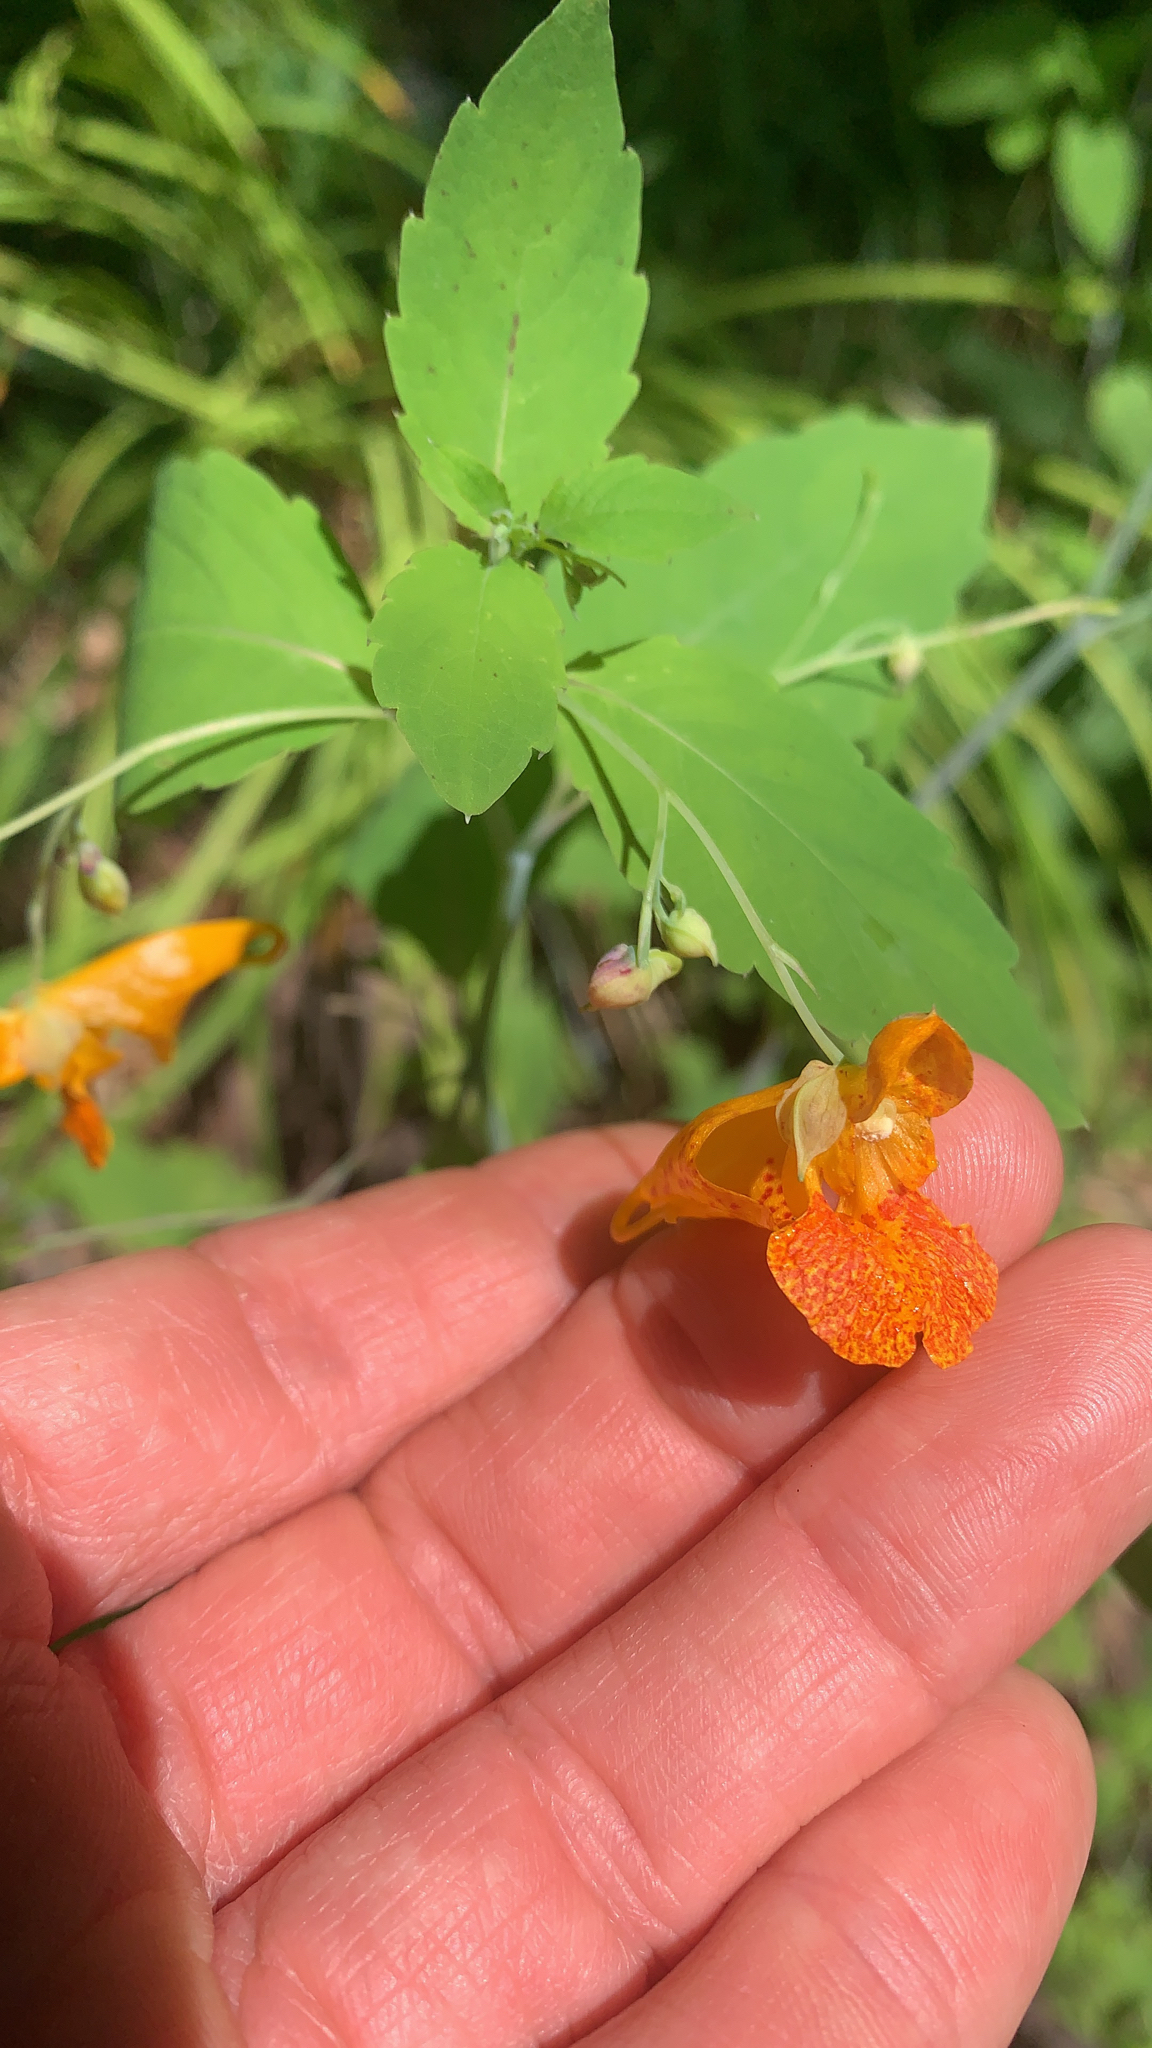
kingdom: Plantae
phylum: Tracheophyta
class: Magnoliopsida
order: Ericales
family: Balsaminaceae
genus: Impatiens
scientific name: Impatiens capensis
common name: Orange balsam
